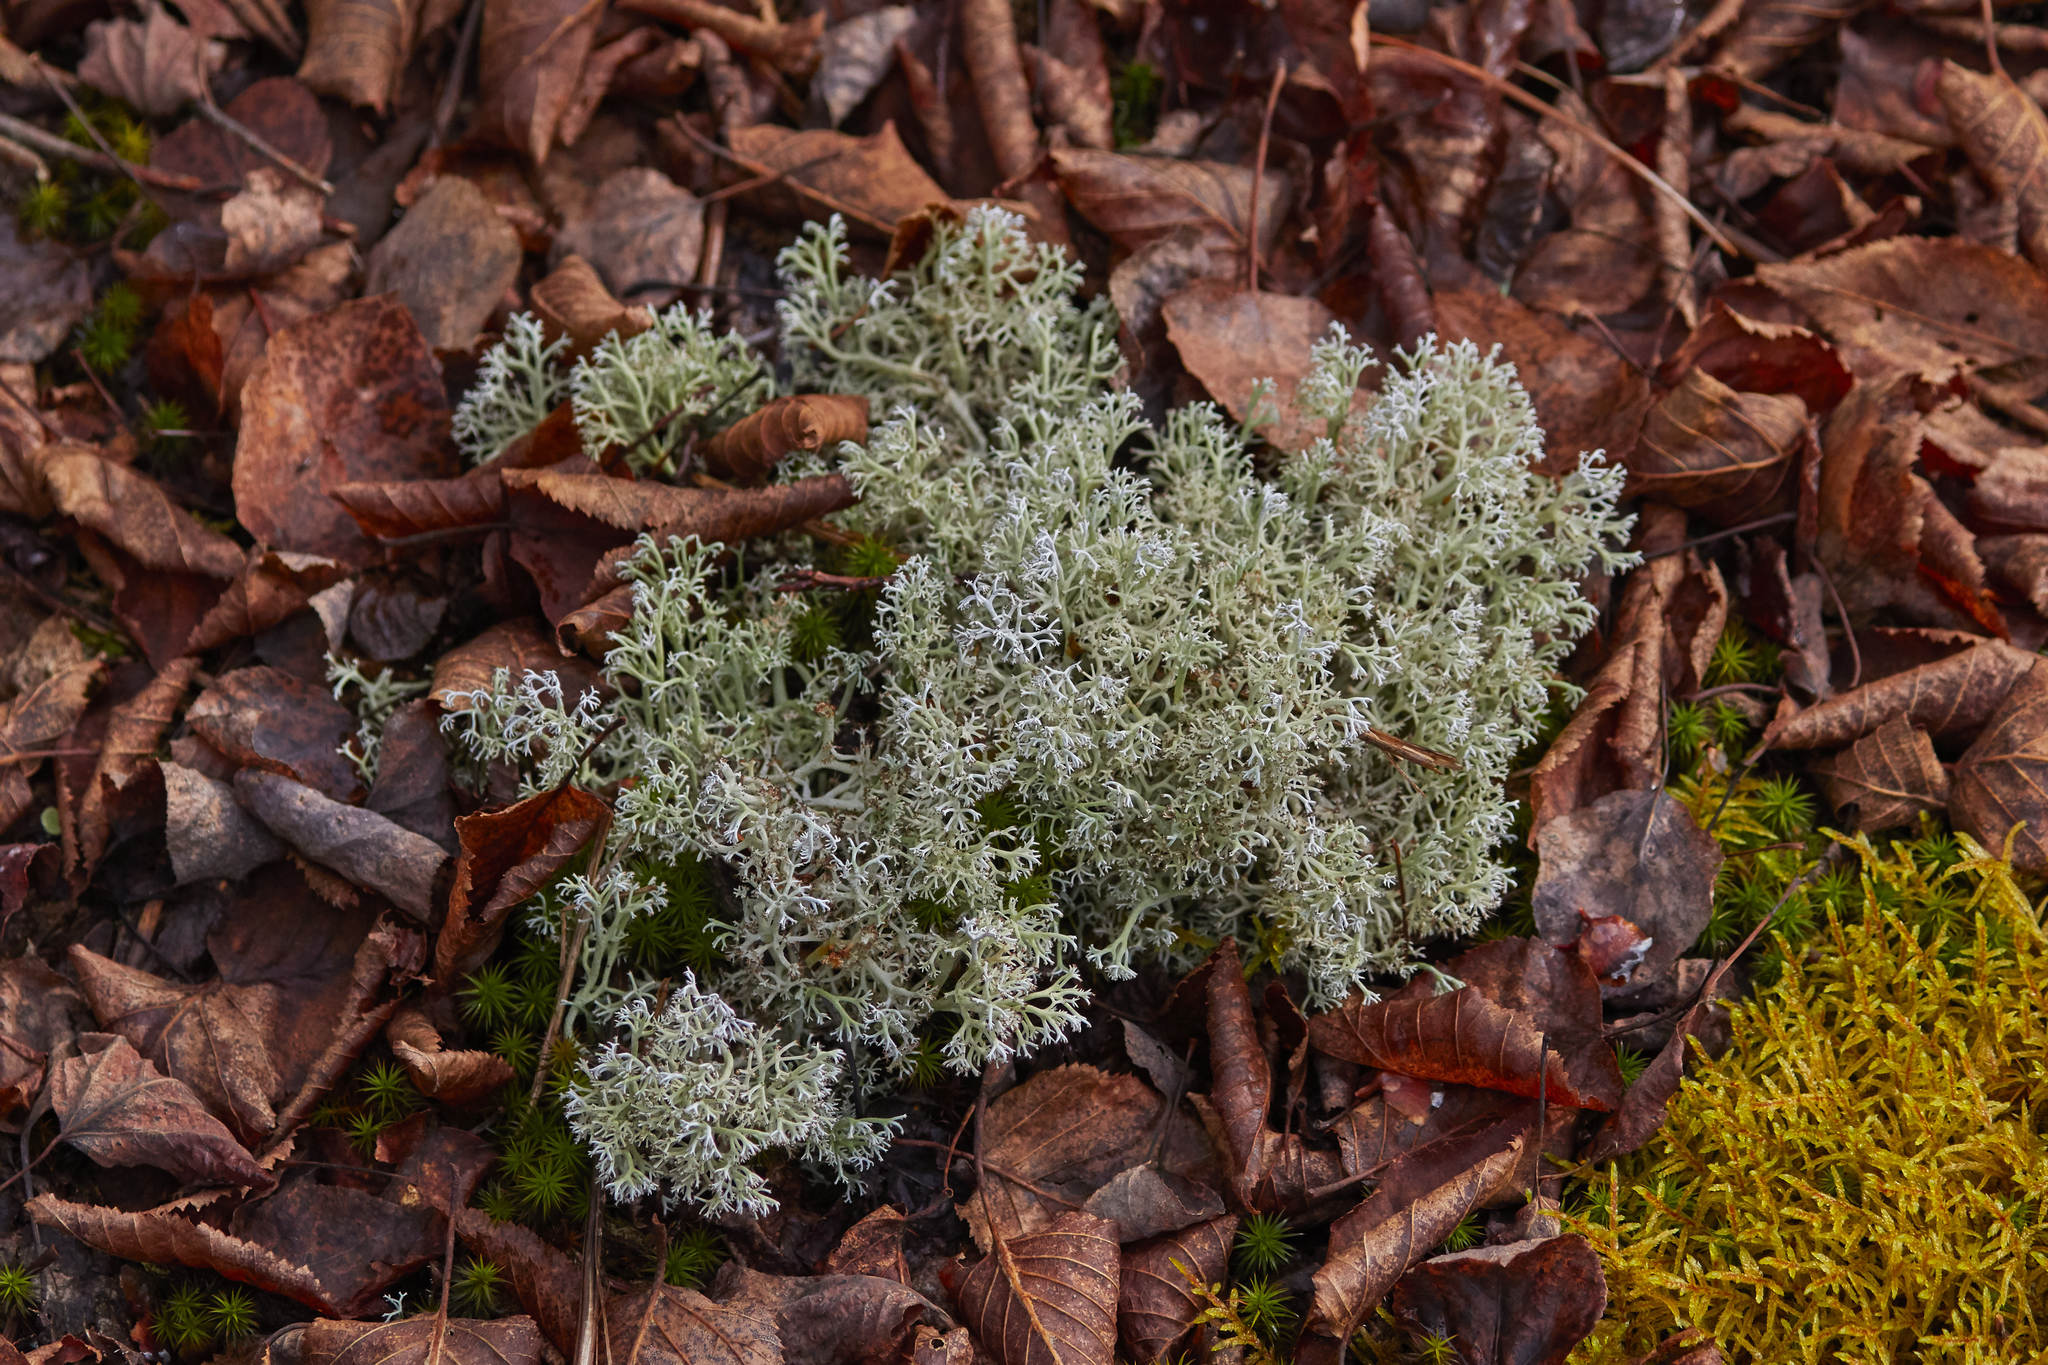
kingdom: Fungi
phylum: Ascomycota
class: Lecanoromycetes
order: Lecanorales
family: Cladoniaceae
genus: Cladonia
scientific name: Cladonia rangiferina
